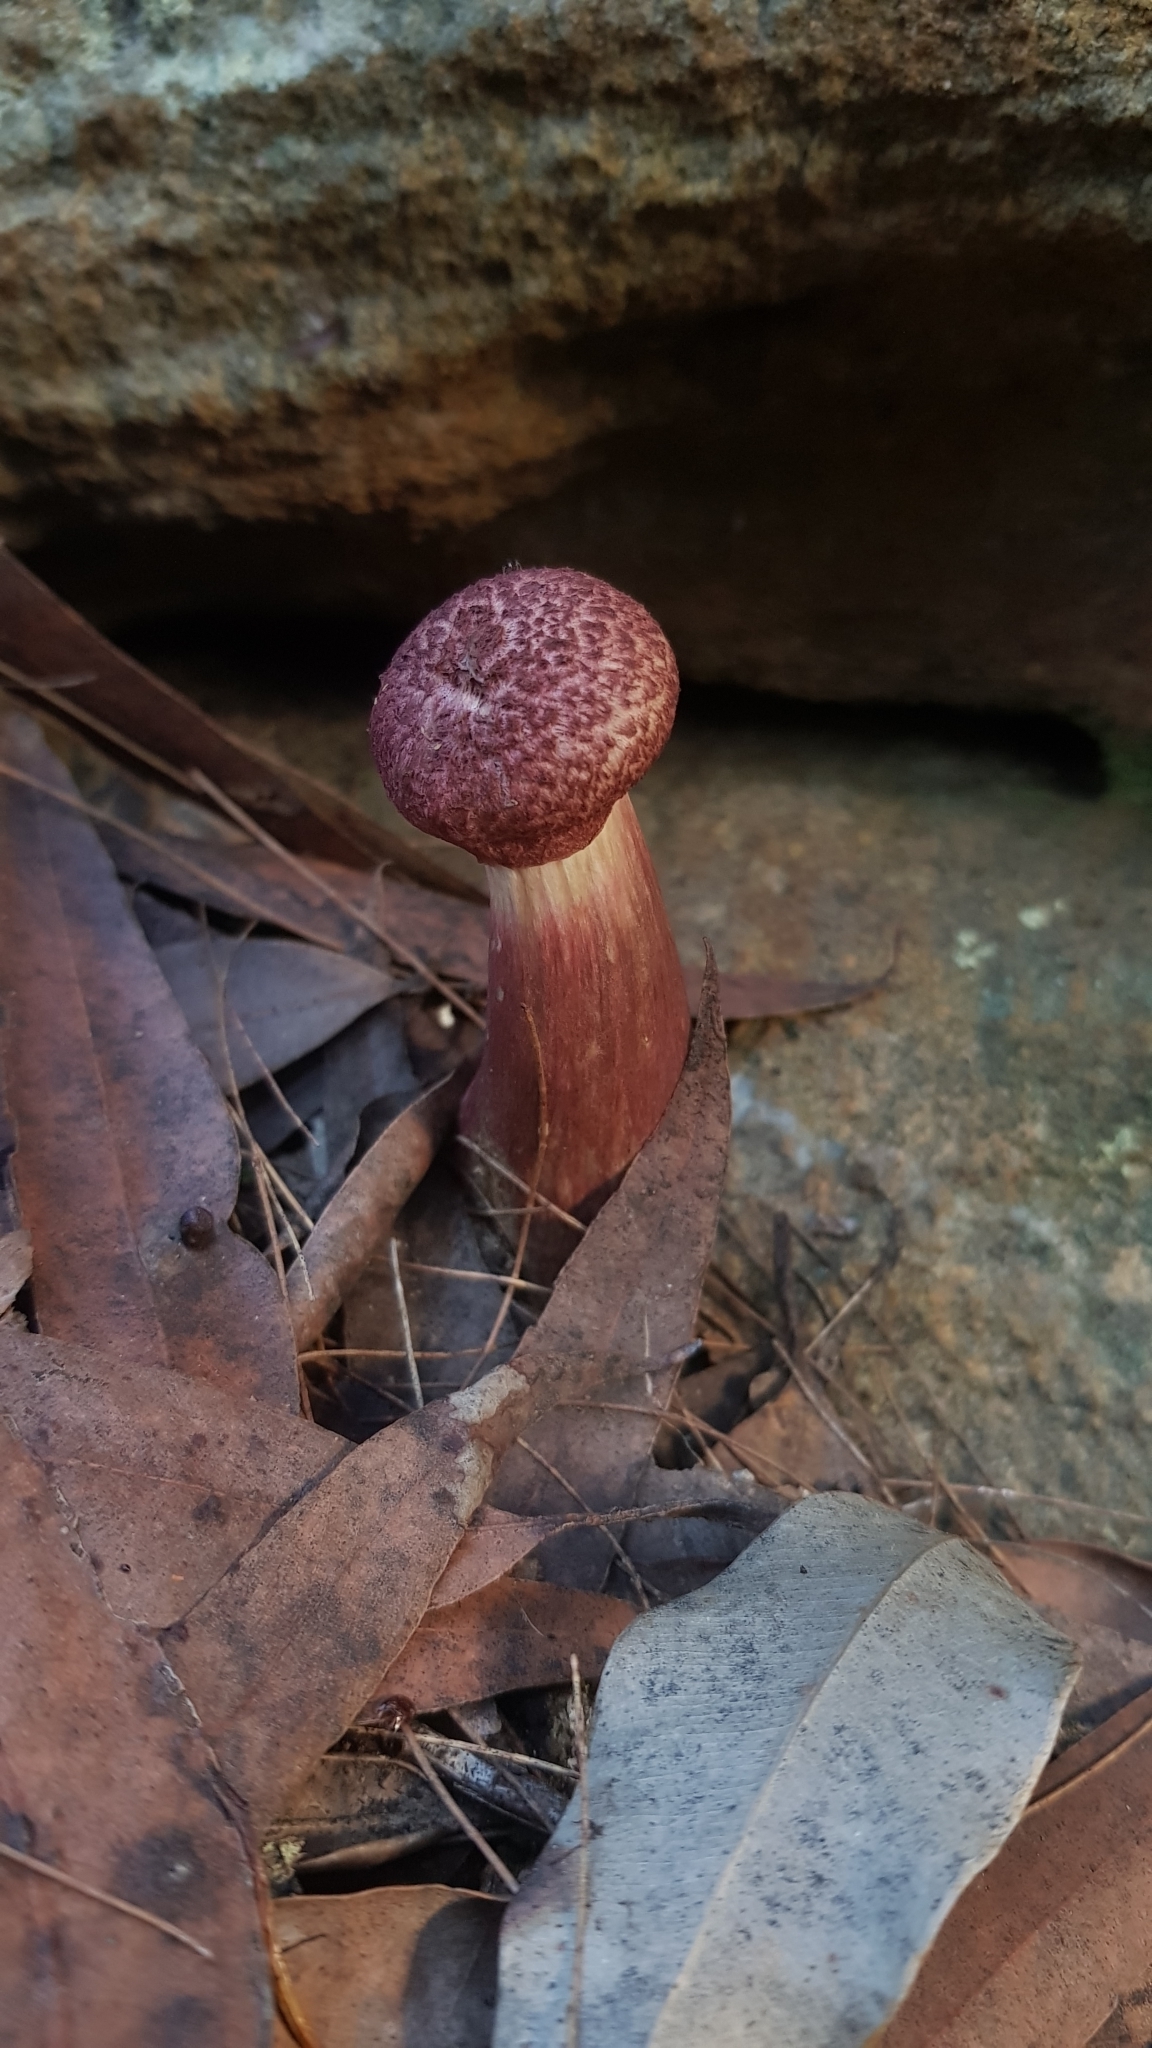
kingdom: Fungi
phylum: Basidiomycota
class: Agaricomycetes
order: Boletales
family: Boletaceae
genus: Boletellus
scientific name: Boletellus emodensis
